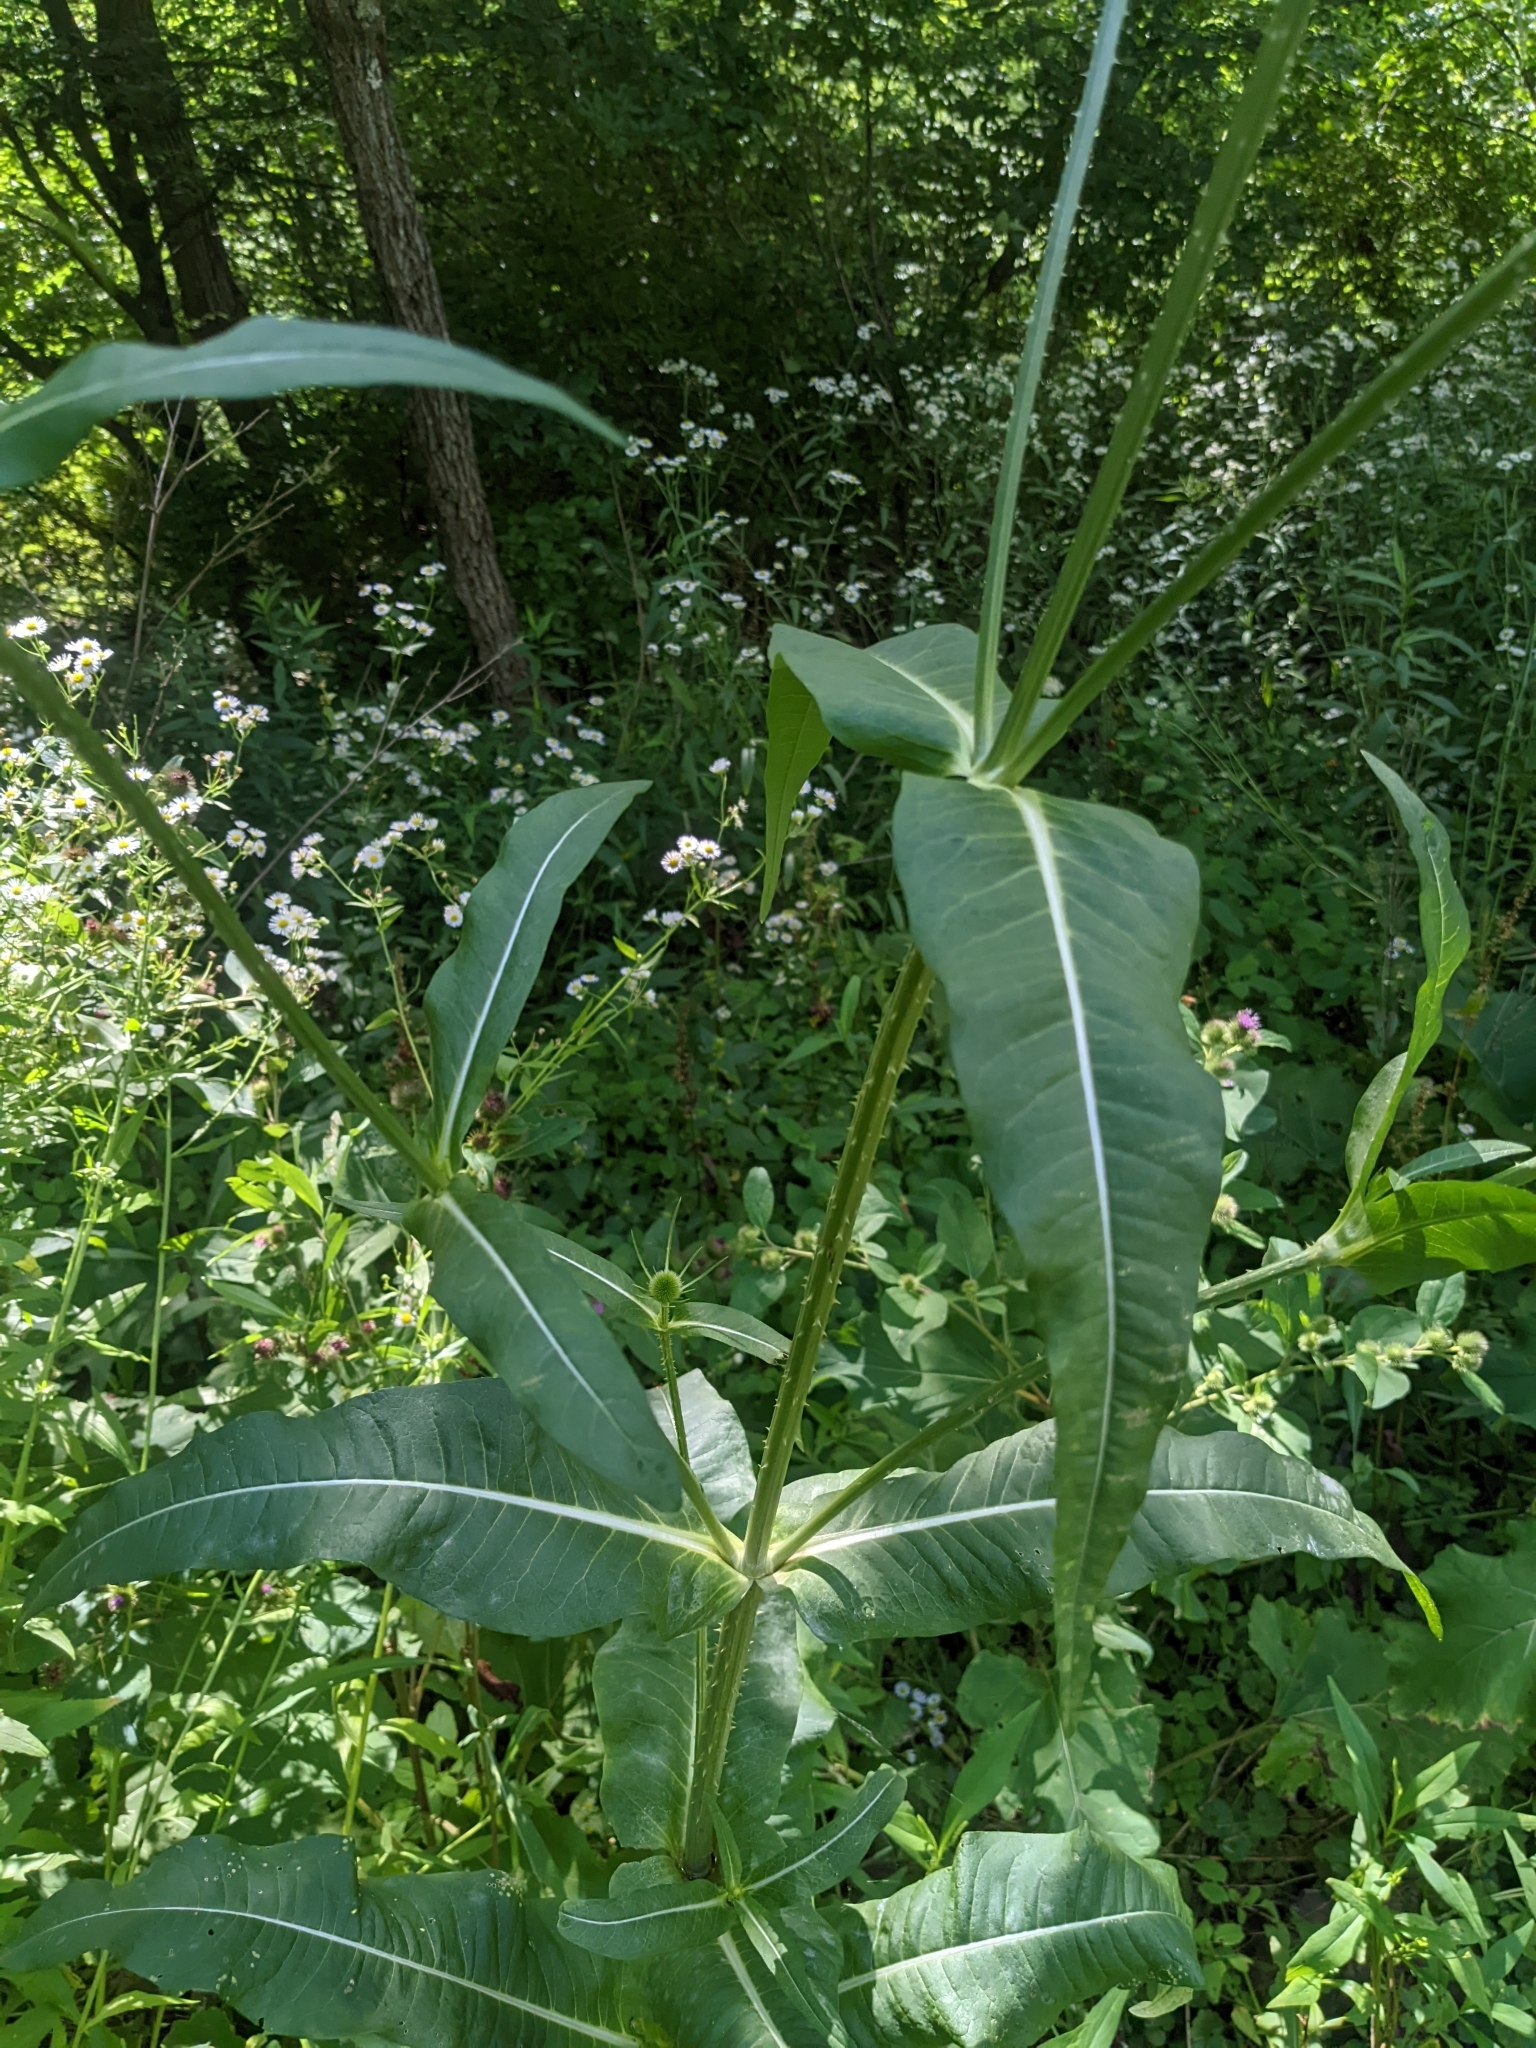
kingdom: Plantae
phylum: Tracheophyta
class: Magnoliopsida
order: Dipsacales
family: Caprifoliaceae
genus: Dipsacus
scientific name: Dipsacus fullonum
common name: Teasel
